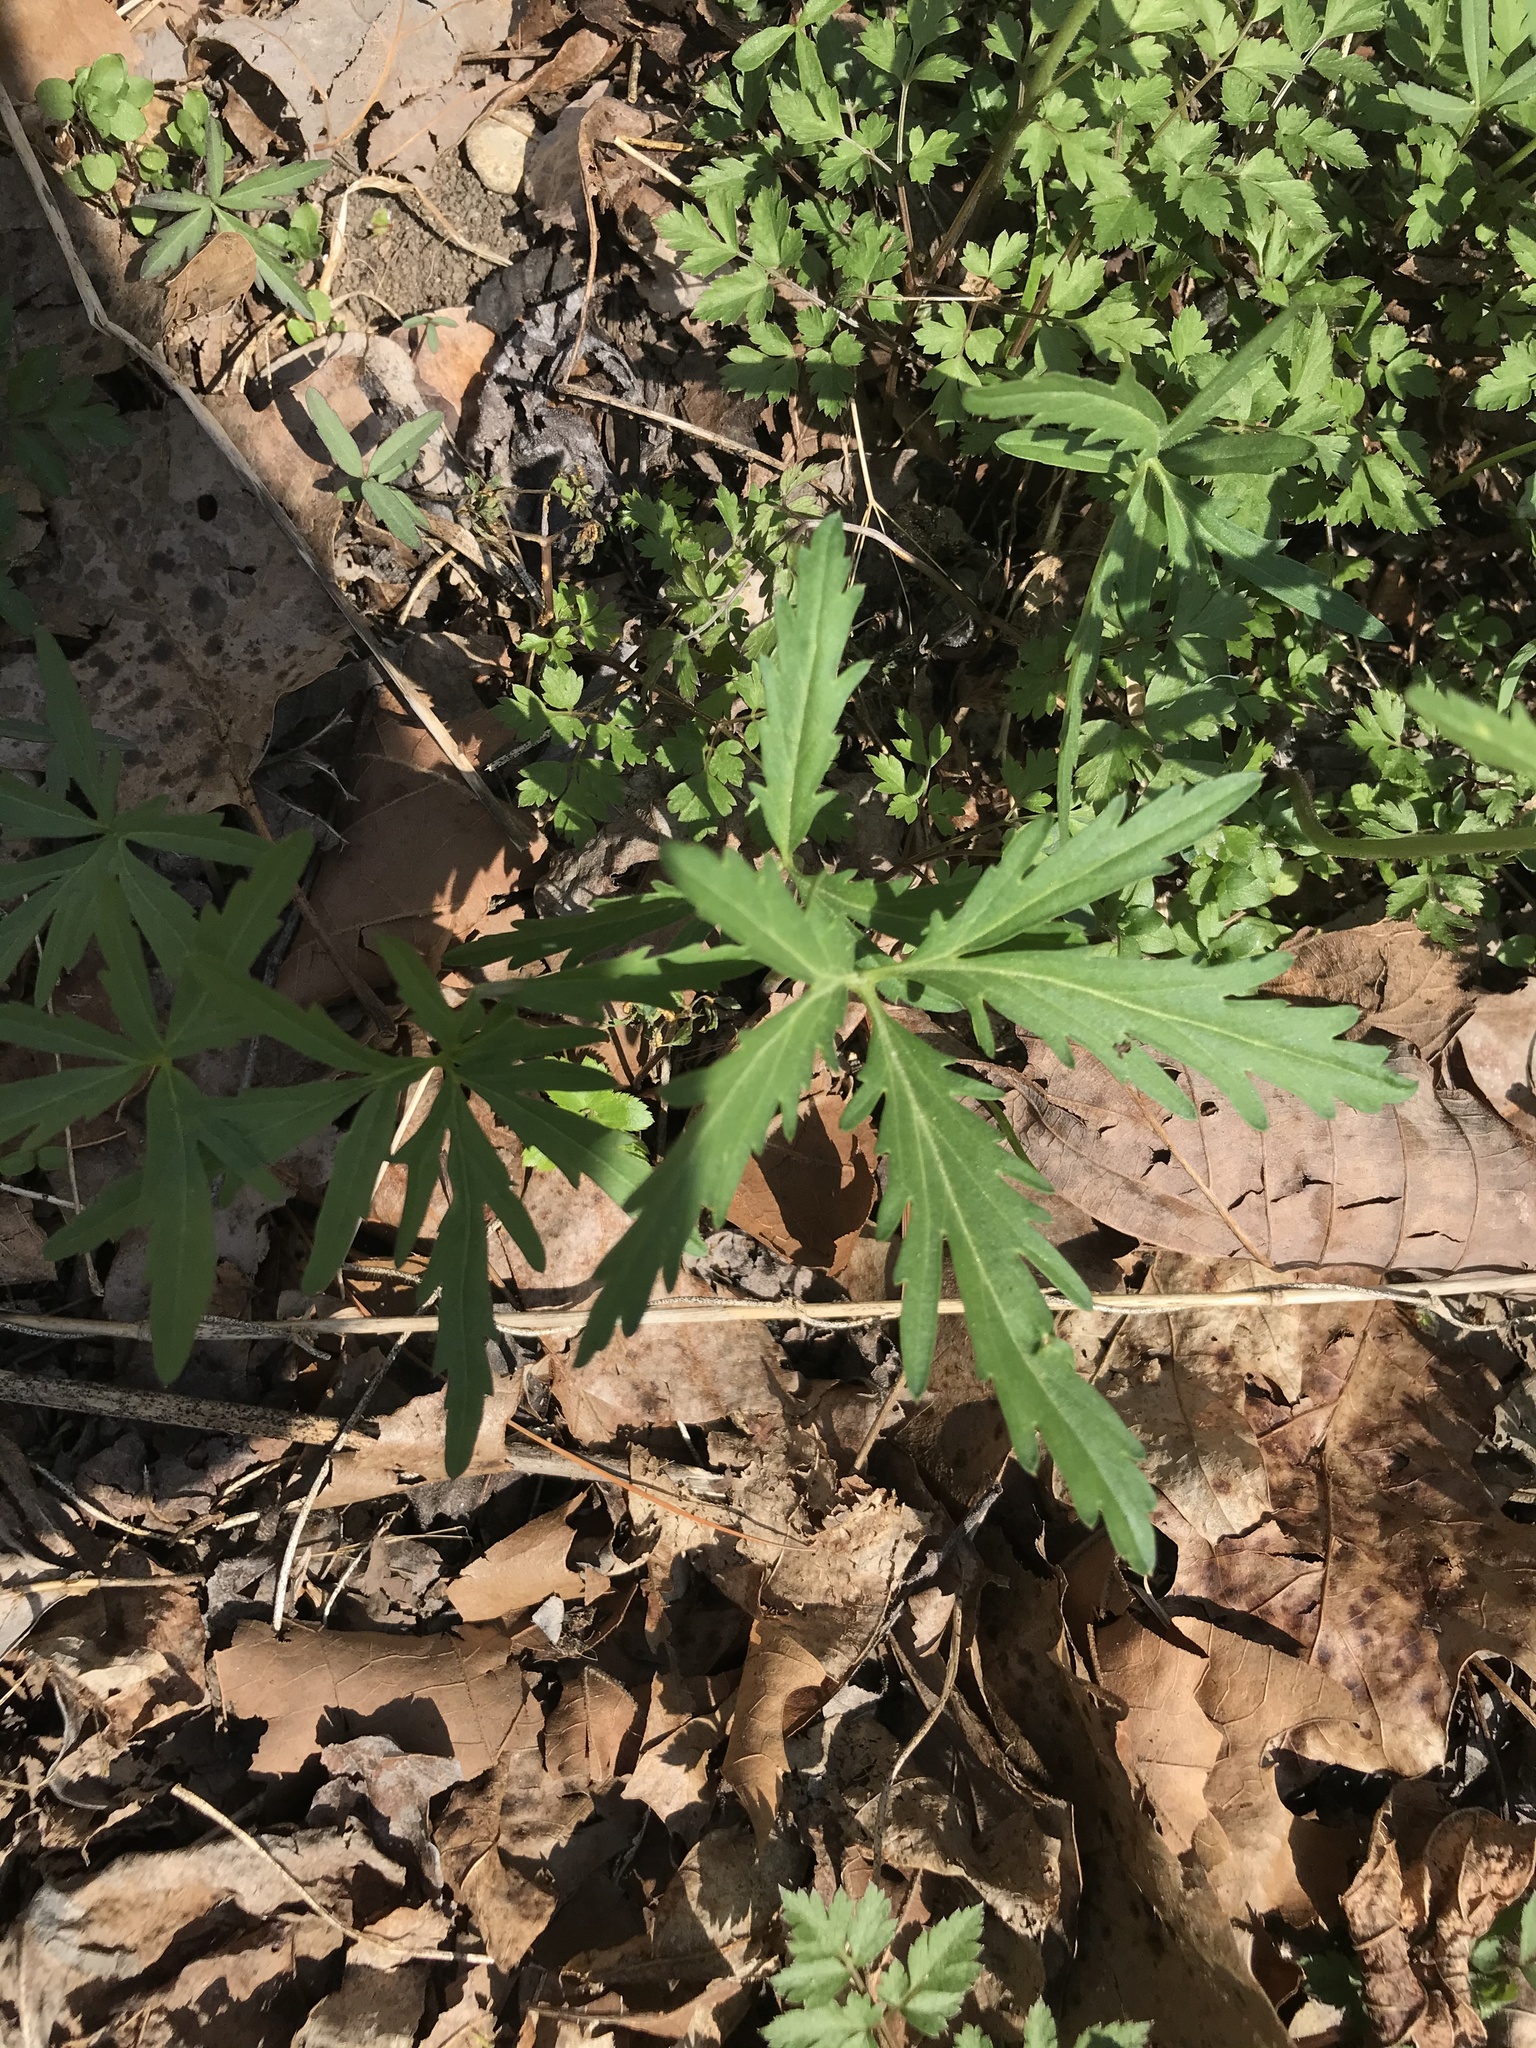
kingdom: Plantae
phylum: Tracheophyta
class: Magnoliopsida
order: Brassicales
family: Brassicaceae
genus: Cardamine
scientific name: Cardamine concatenata
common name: Cut-leaf toothcup
